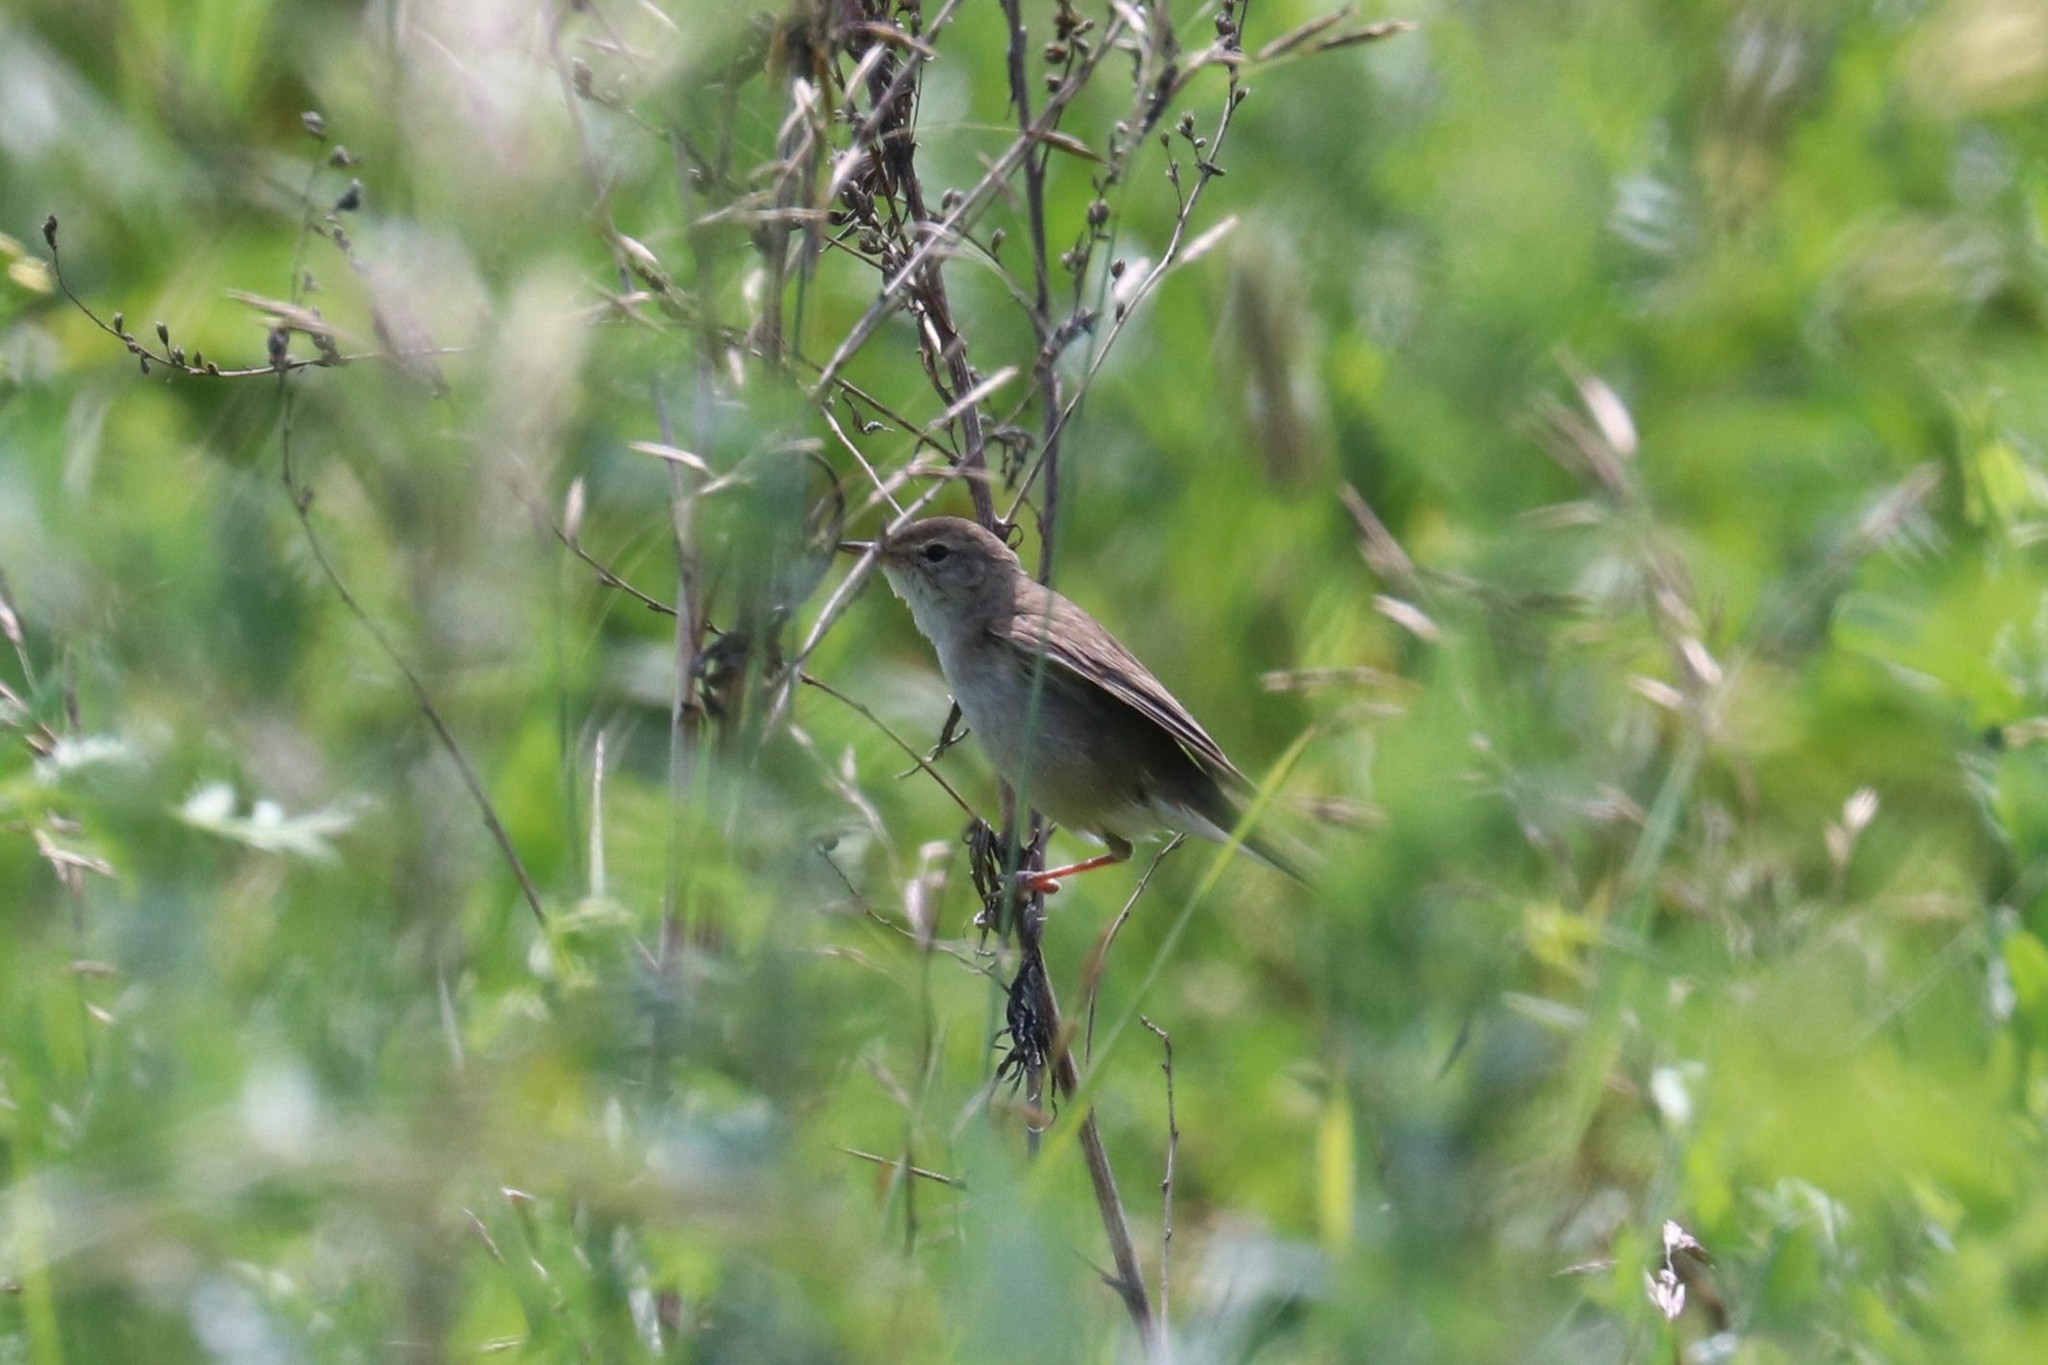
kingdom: Animalia
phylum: Chordata
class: Aves
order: Passeriformes
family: Acrocephalidae
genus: Iduna
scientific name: Iduna caligata
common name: Booted warbler
